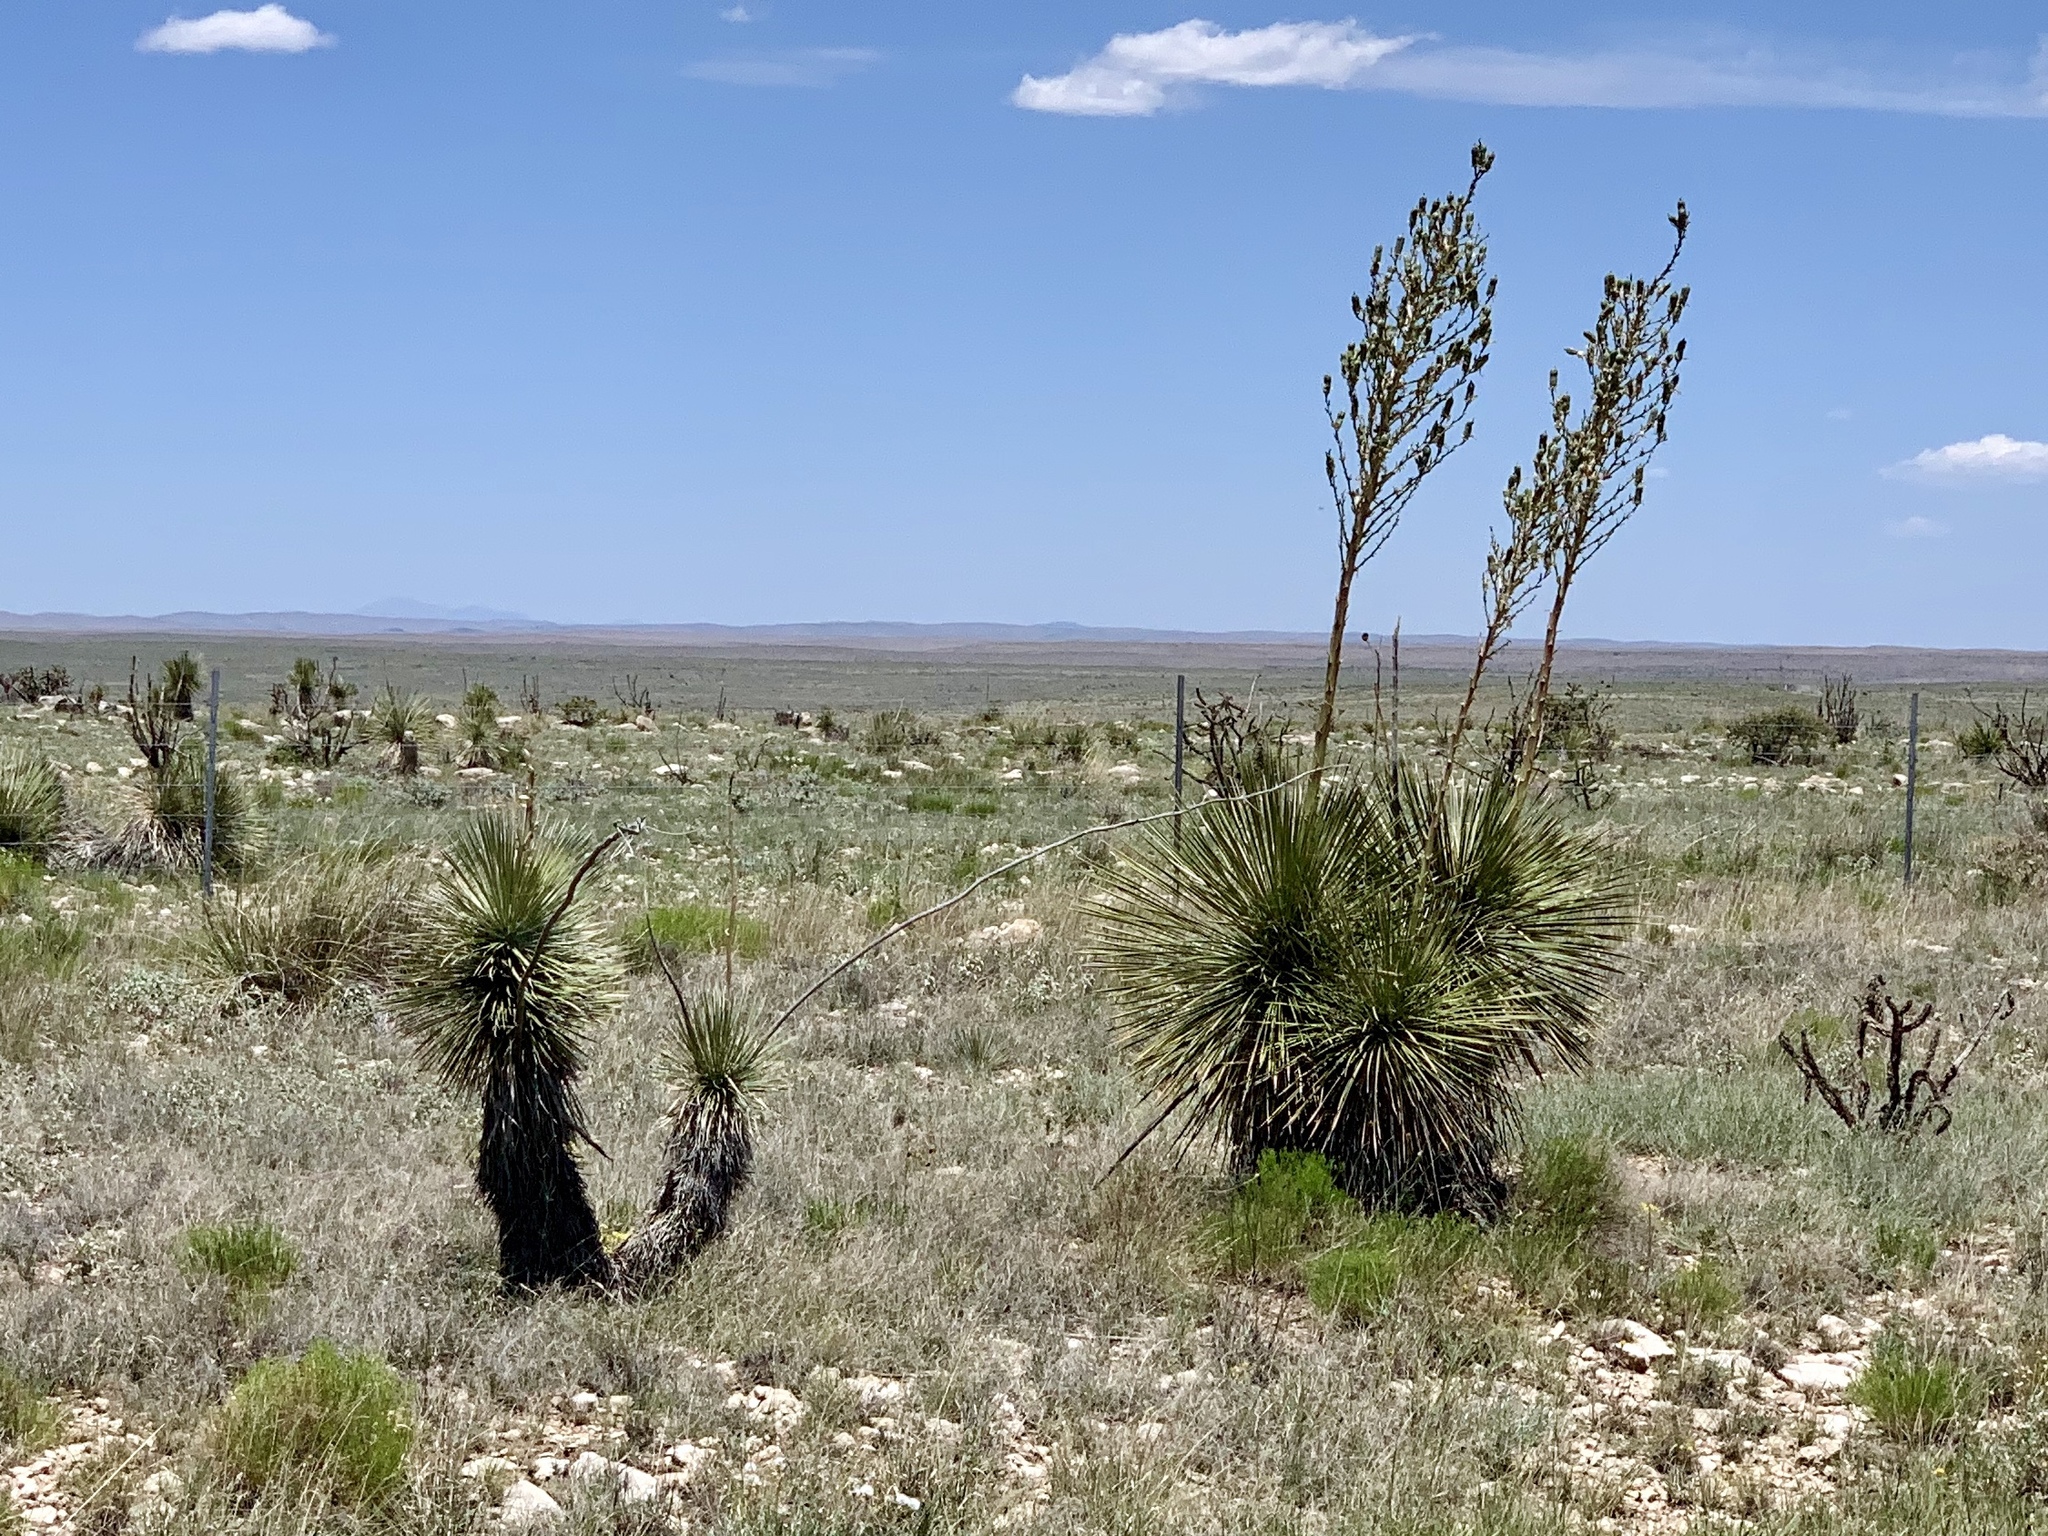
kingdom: Plantae
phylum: Tracheophyta
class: Liliopsida
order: Asparagales
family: Asparagaceae
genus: Yucca
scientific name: Yucca elata
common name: Palmella
